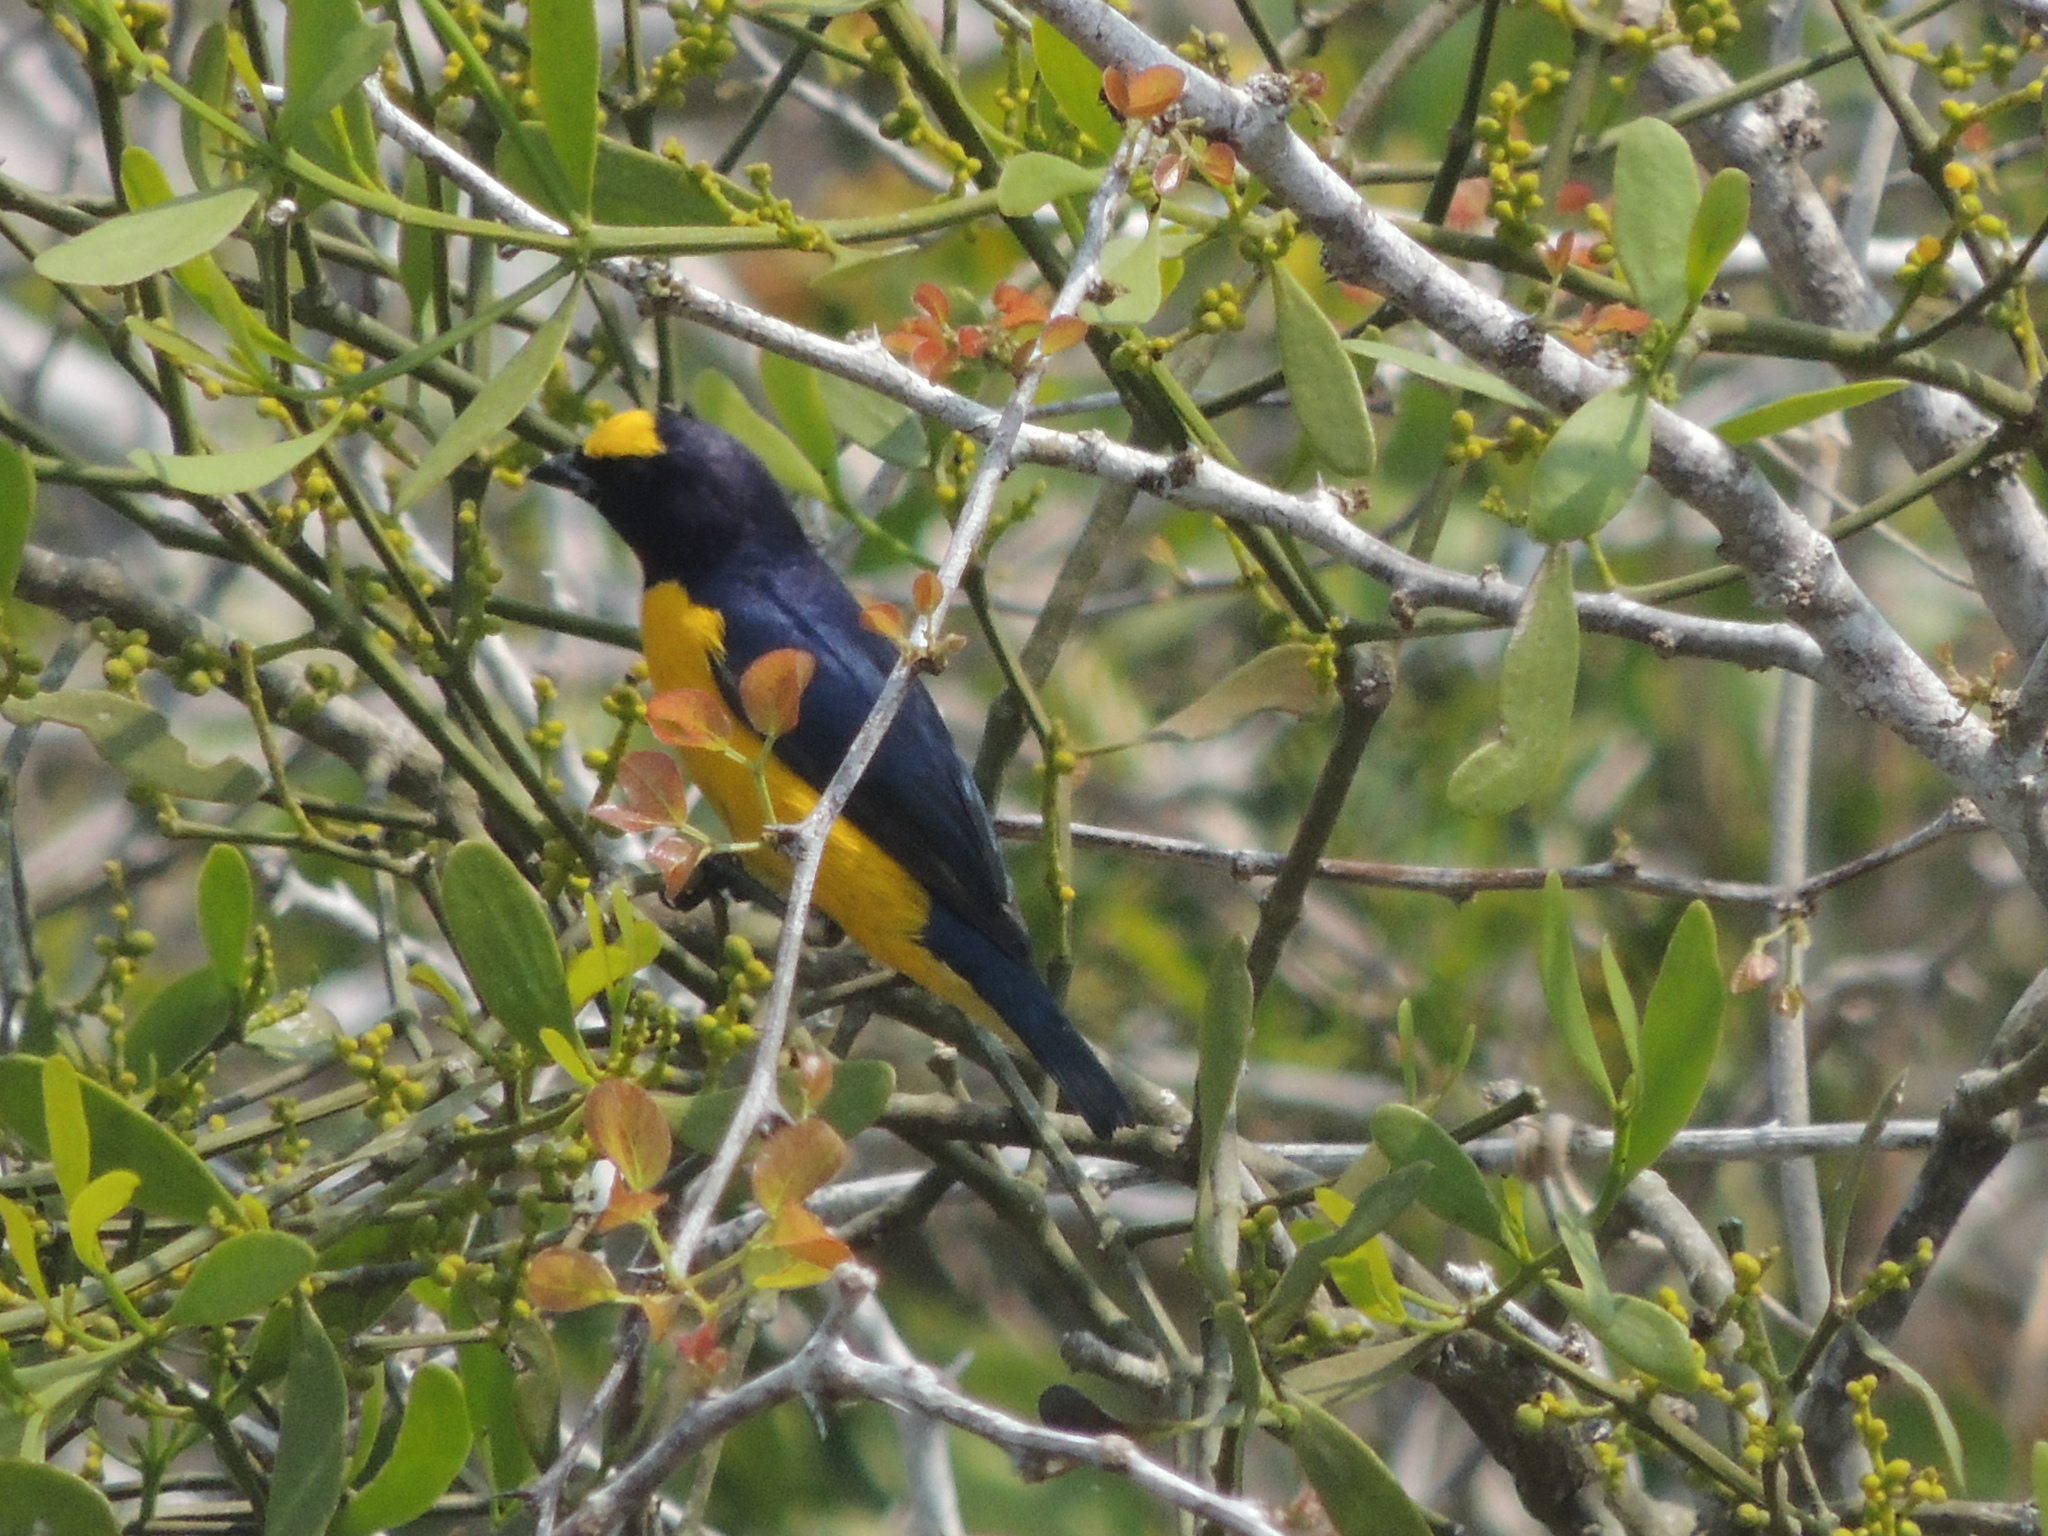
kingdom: Animalia
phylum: Chordata
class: Aves
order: Passeriformes
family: Fringillidae
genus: Euphonia
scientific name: Euphonia affinis
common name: Scrub euphonia
